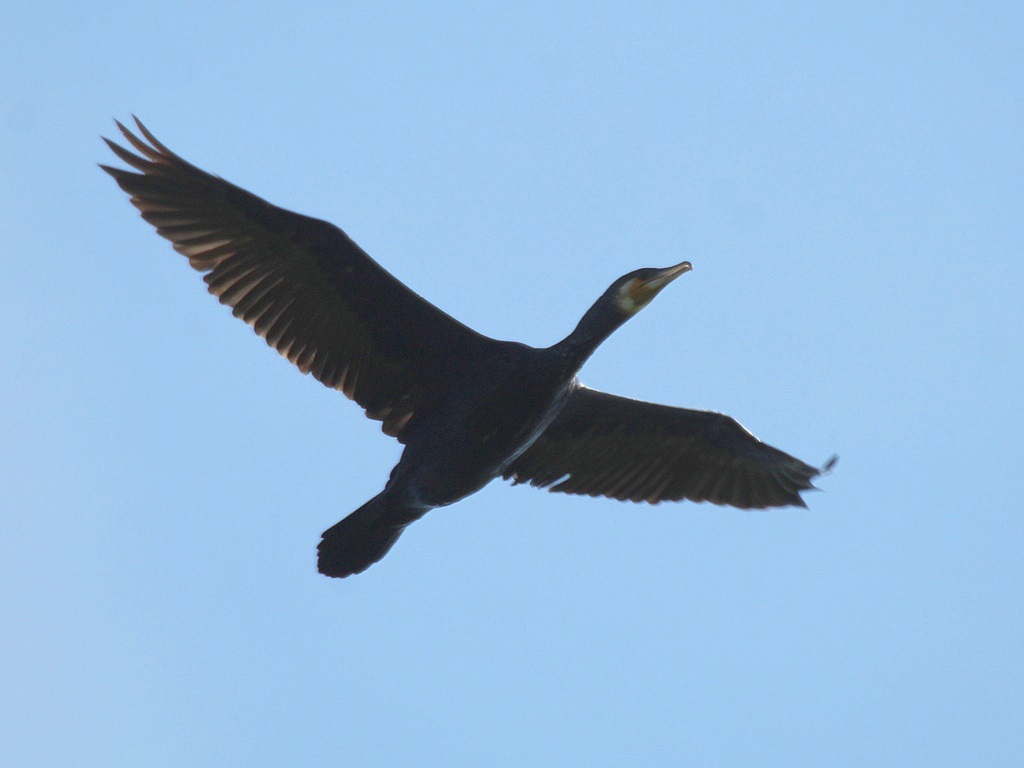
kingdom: Animalia
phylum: Chordata
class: Aves
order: Suliformes
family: Phalacrocoracidae
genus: Phalacrocorax
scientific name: Phalacrocorax carbo
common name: Great cormorant
